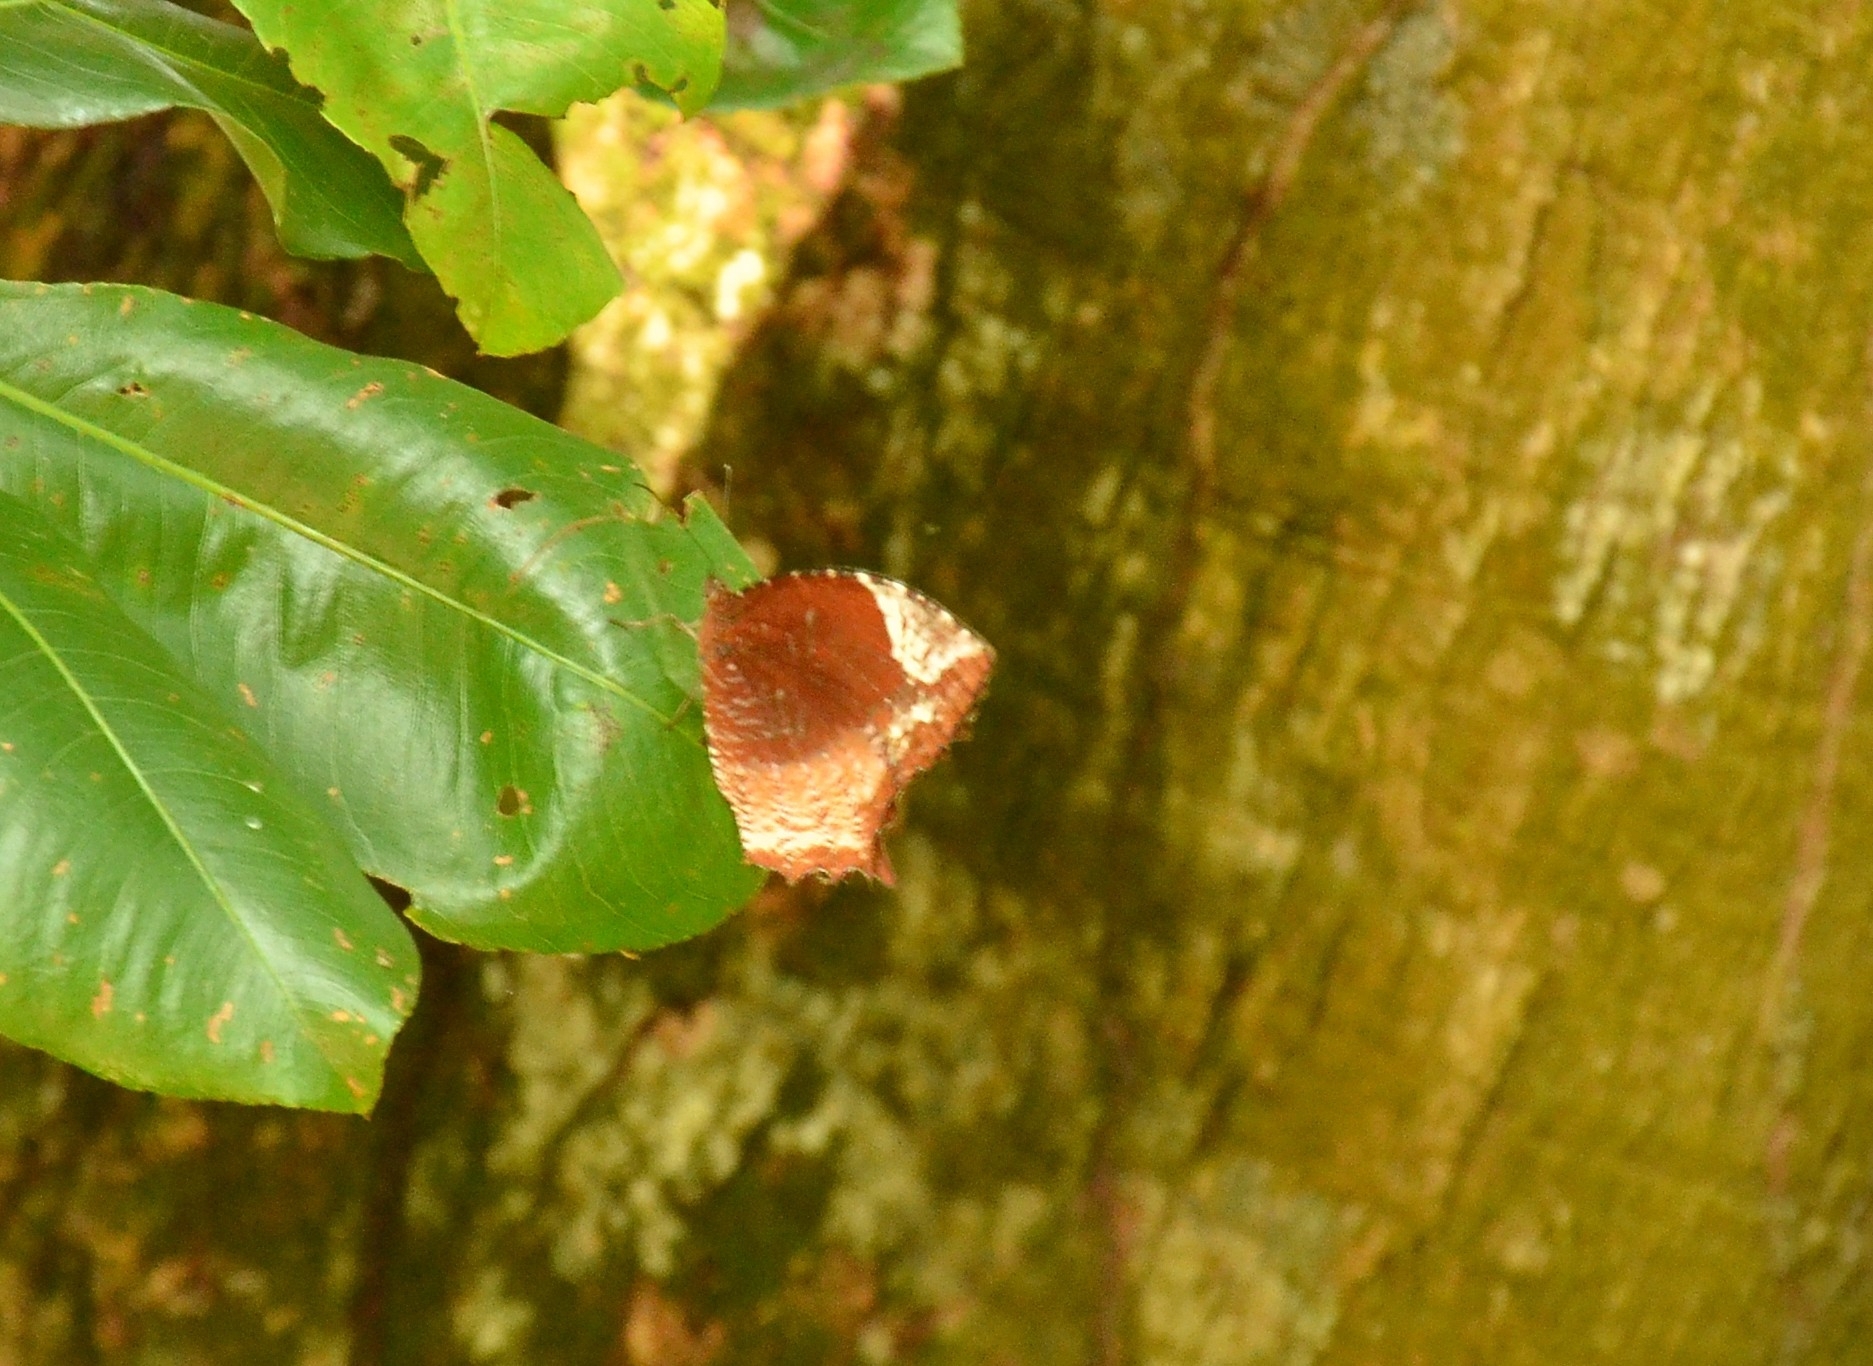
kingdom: Animalia
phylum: Arthropoda
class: Insecta
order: Lepidoptera
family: Nymphalidae
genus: Elymnias
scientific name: Elymnias caudata
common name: Tailed palmfly
